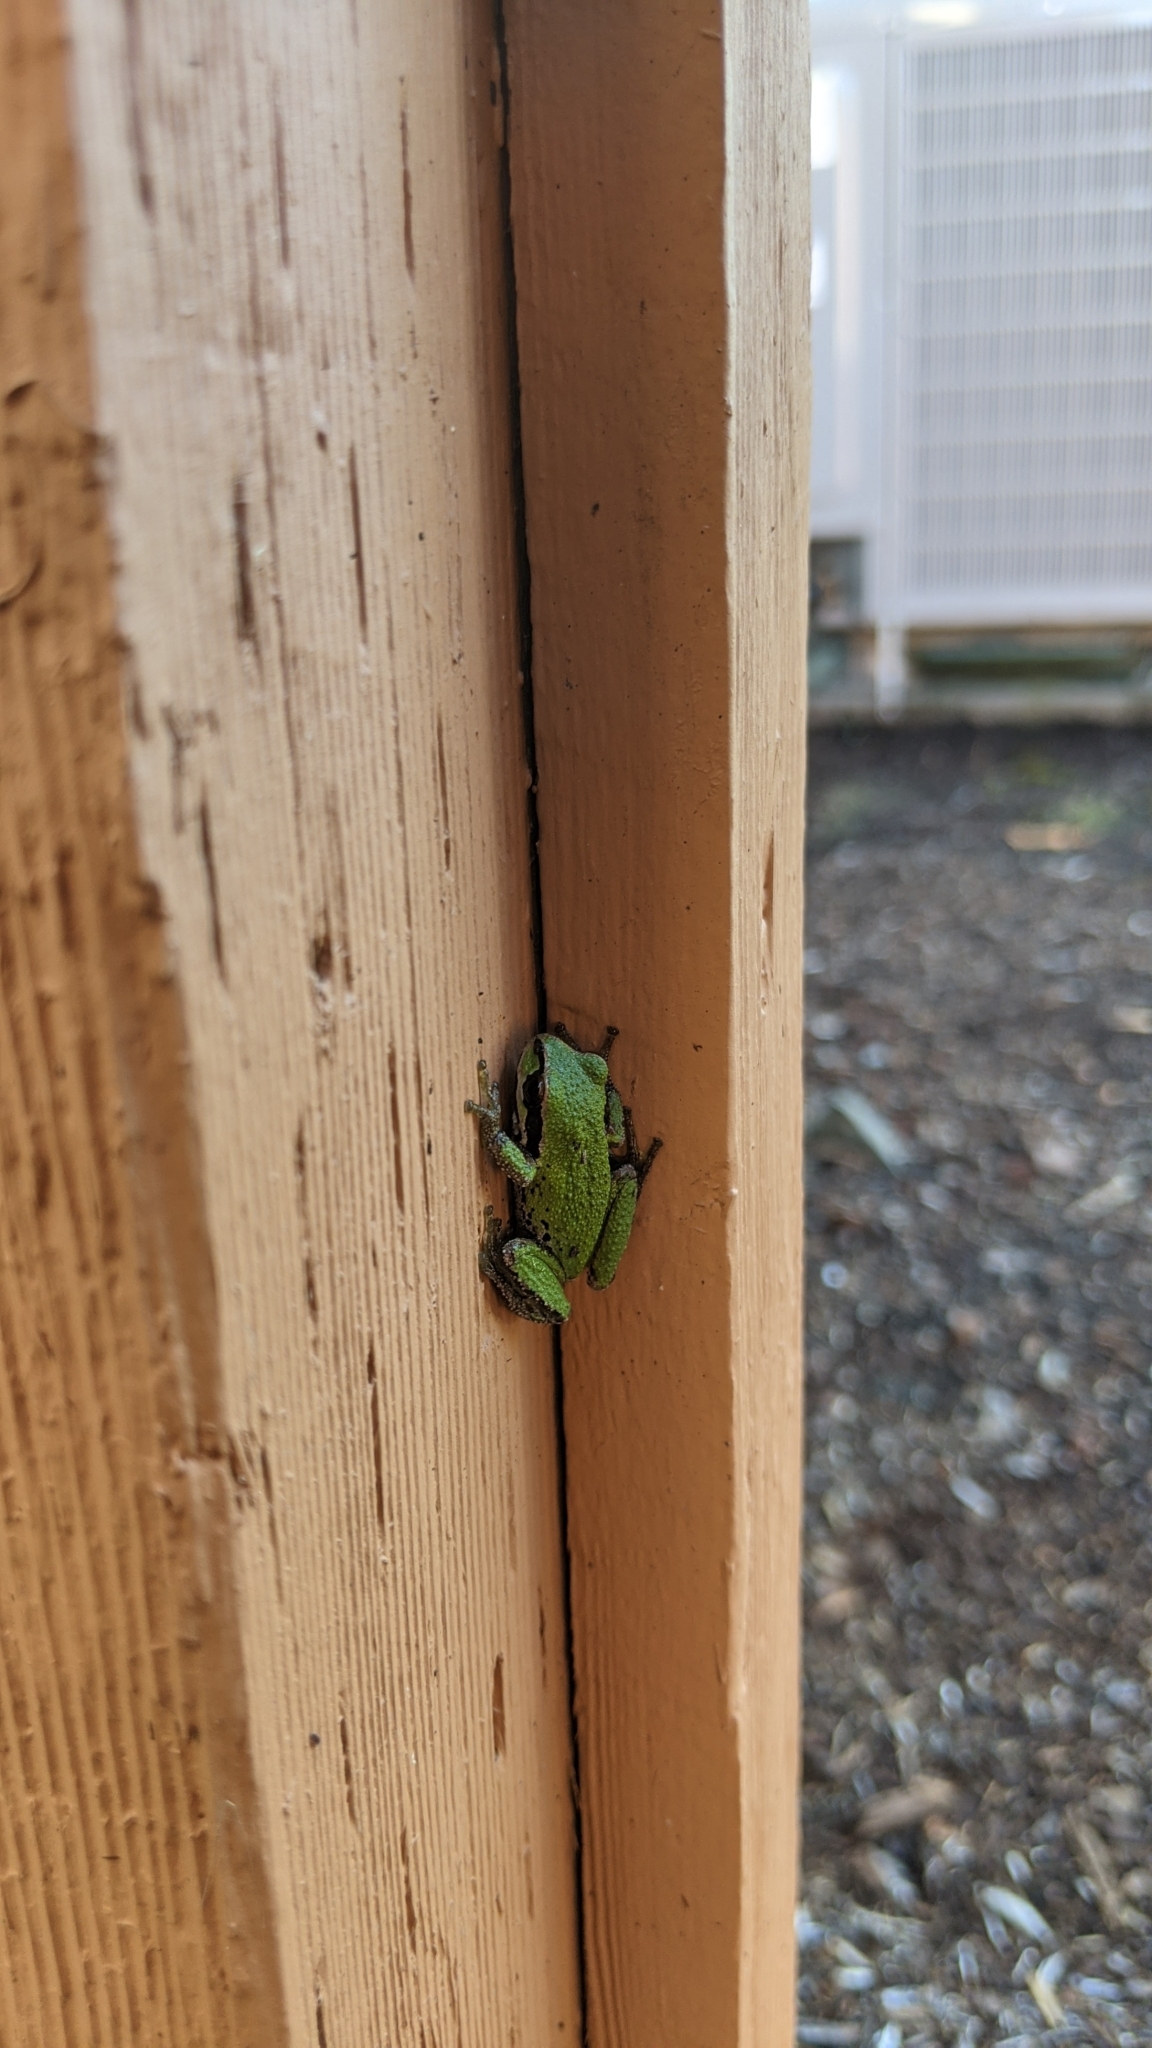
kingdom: Animalia
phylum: Chordata
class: Amphibia
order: Anura
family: Hylidae
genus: Pseudacris
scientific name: Pseudacris regilla
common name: Pacific chorus frog
